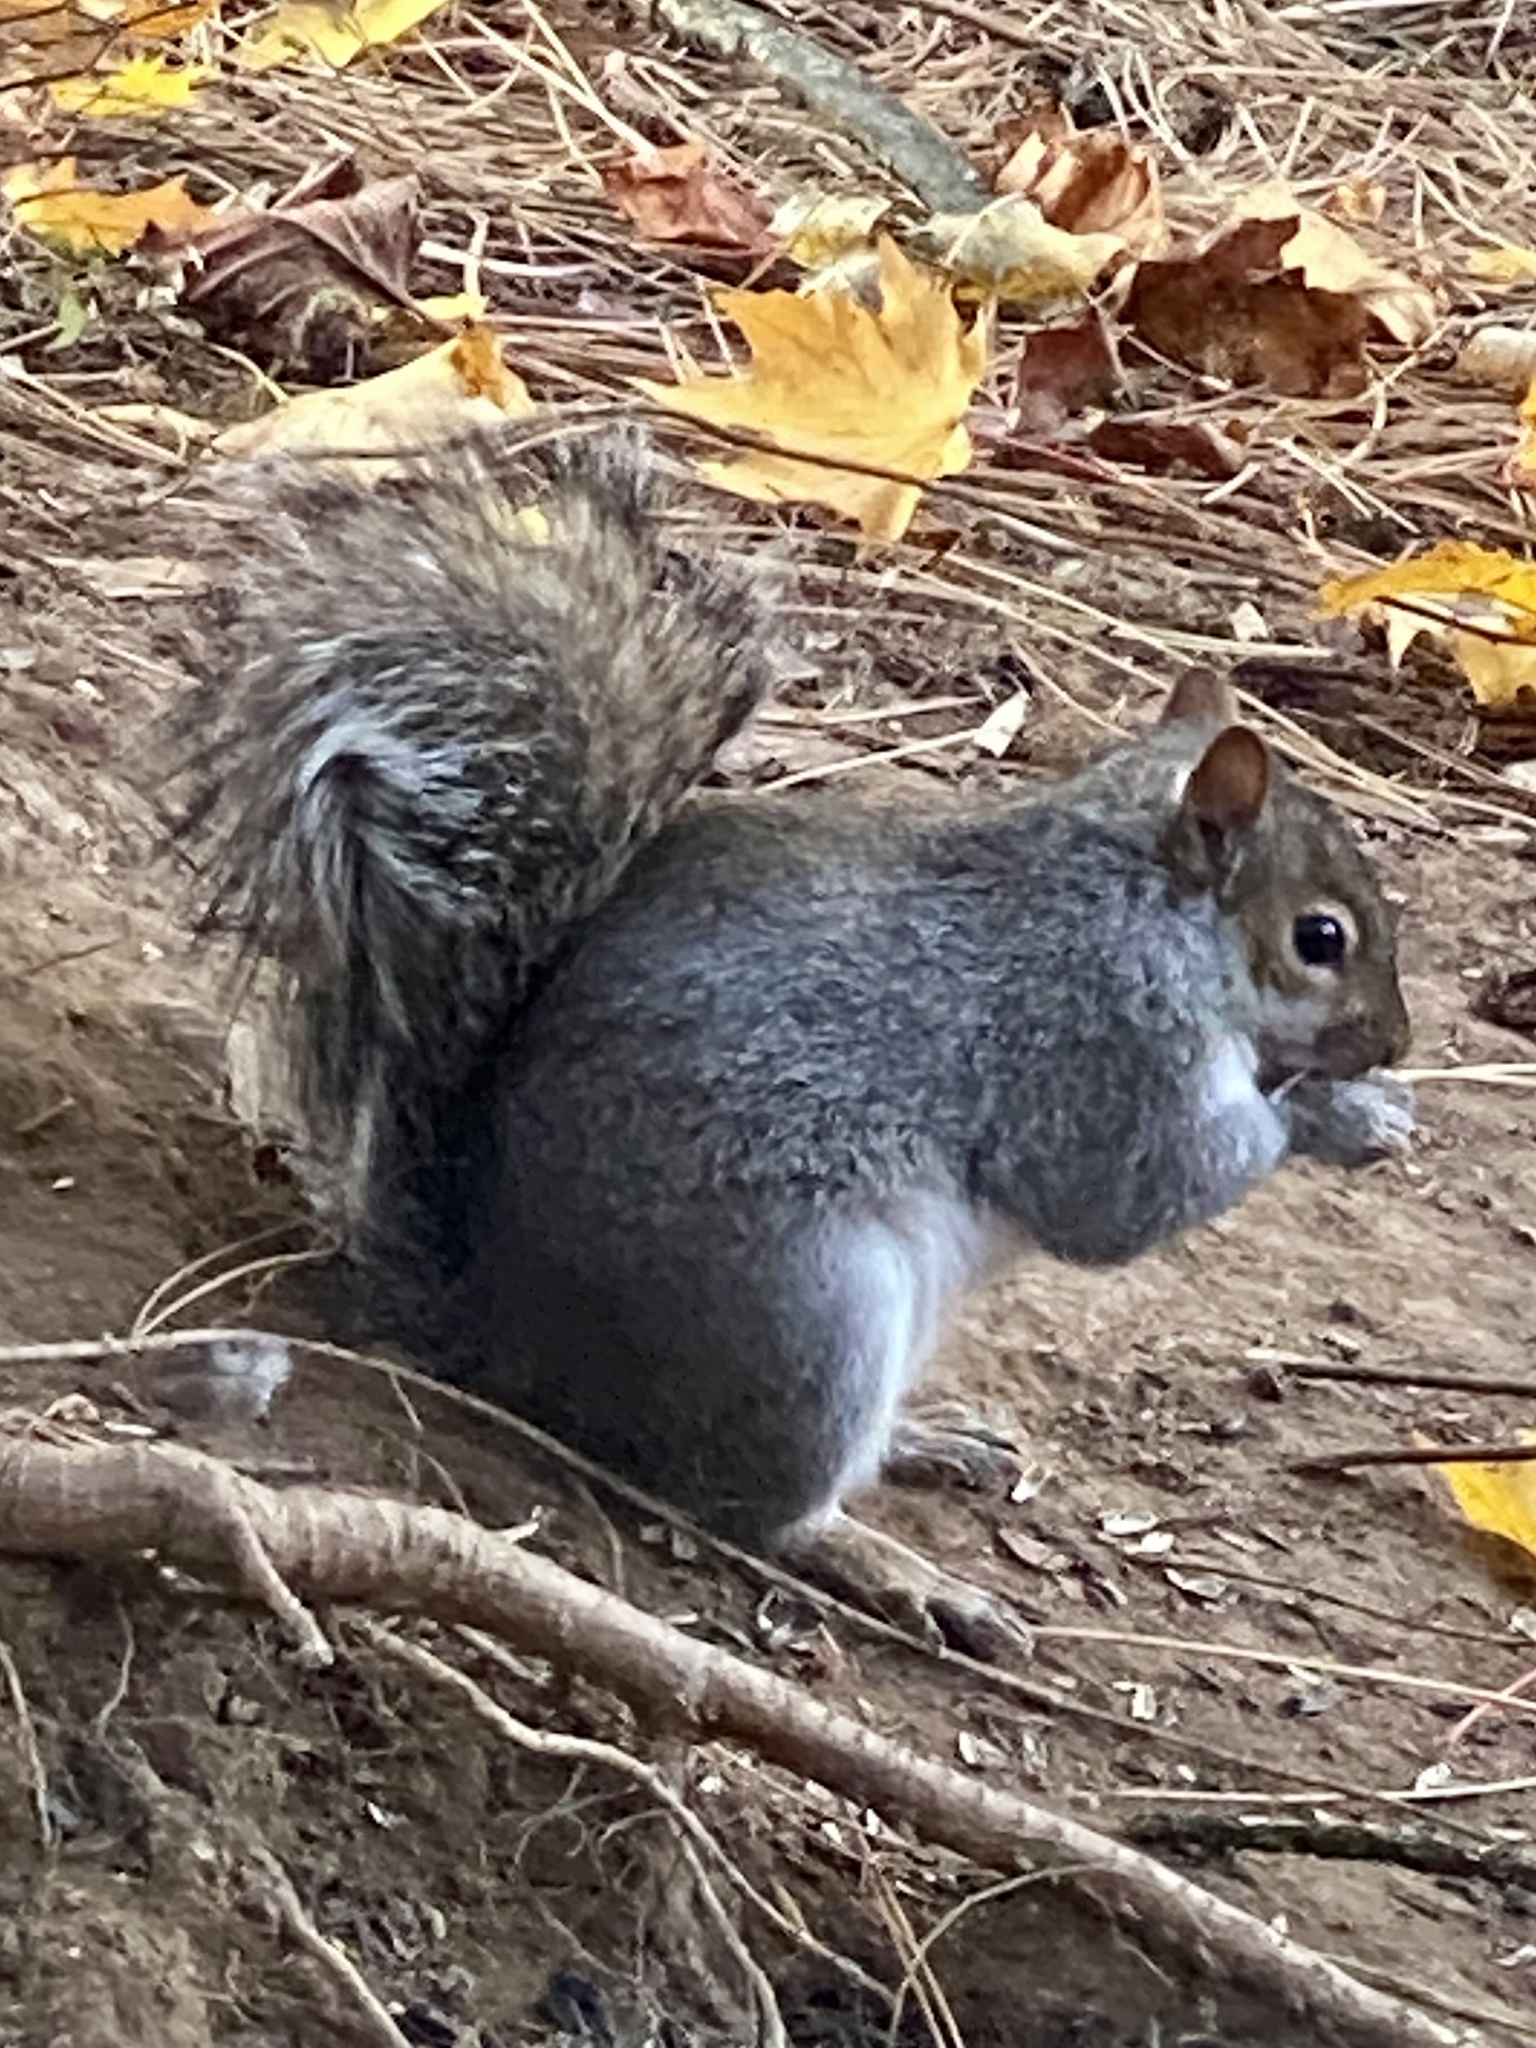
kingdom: Animalia
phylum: Chordata
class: Mammalia
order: Rodentia
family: Sciuridae
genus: Sciurus
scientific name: Sciurus carolinensis
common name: Eastern gray squirrel
